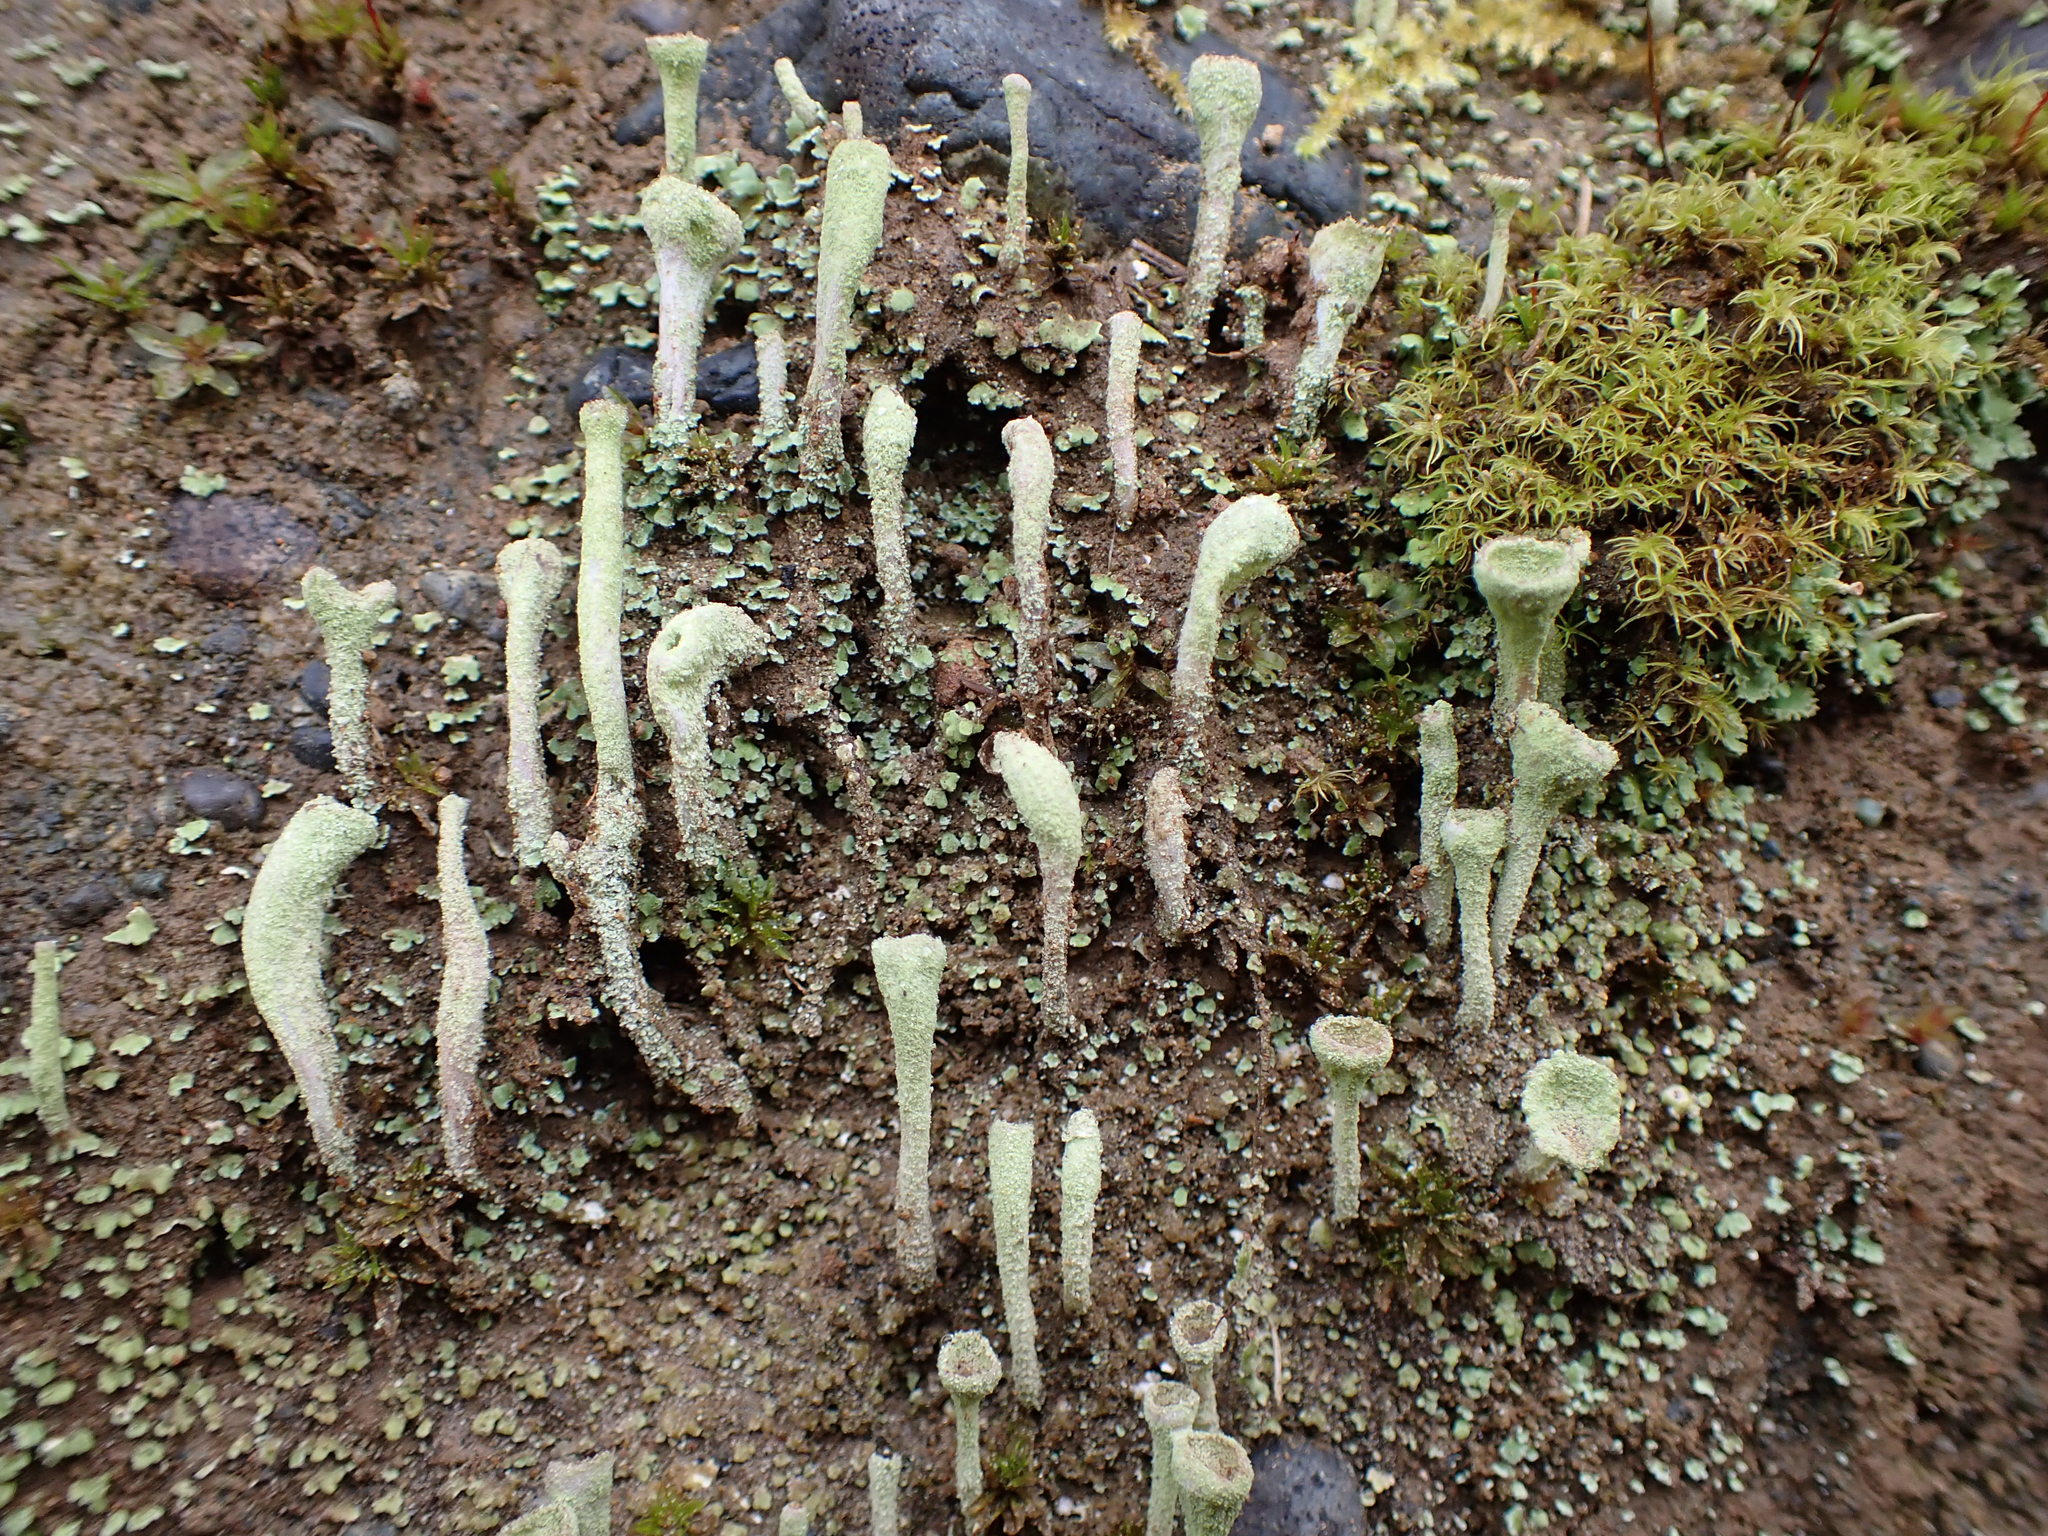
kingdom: Fungi
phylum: Ascomycota
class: Lecanoromycetes
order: Lecanorales
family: Cladoniaceae
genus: Cladonia
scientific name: Cladonia fimbriata
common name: Powdered trumpet lichen
